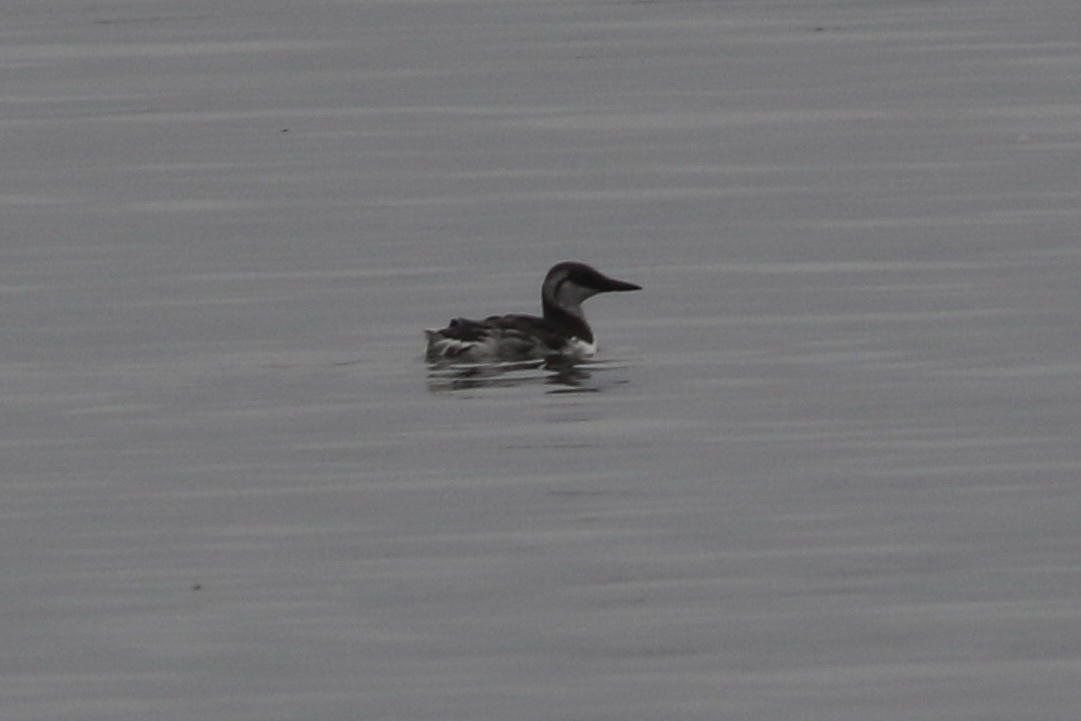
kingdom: Animalia
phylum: Chordata
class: Aves
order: Charadriiformes
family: Alcidae
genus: Uria
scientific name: Uria aalge
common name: Common murre
